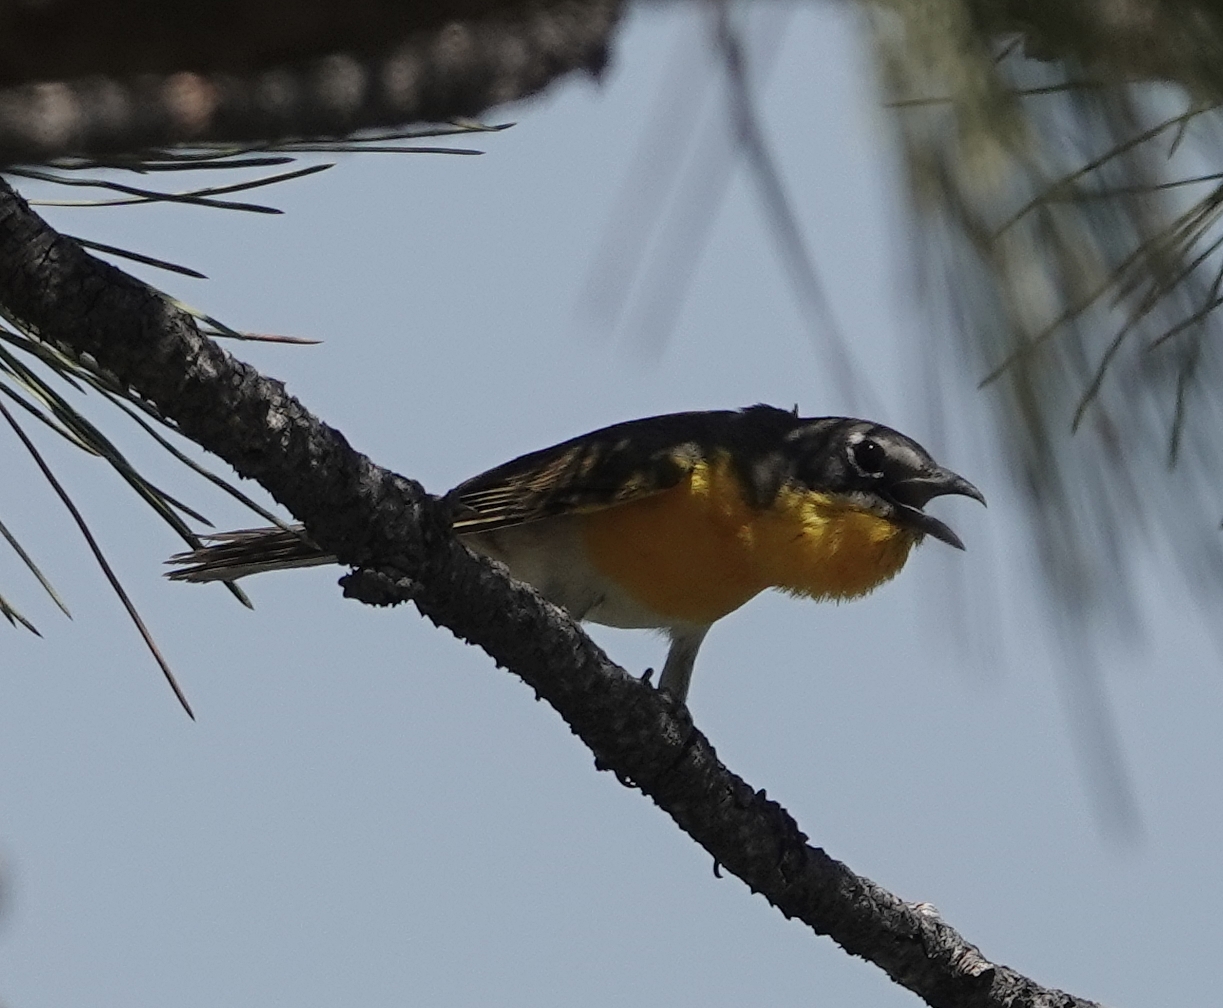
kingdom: Animalia
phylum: Chordata
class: Aves
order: Passeriformes
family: Parulidae
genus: Icteria
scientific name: Icteria virens
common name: Yellow-breasted chat
